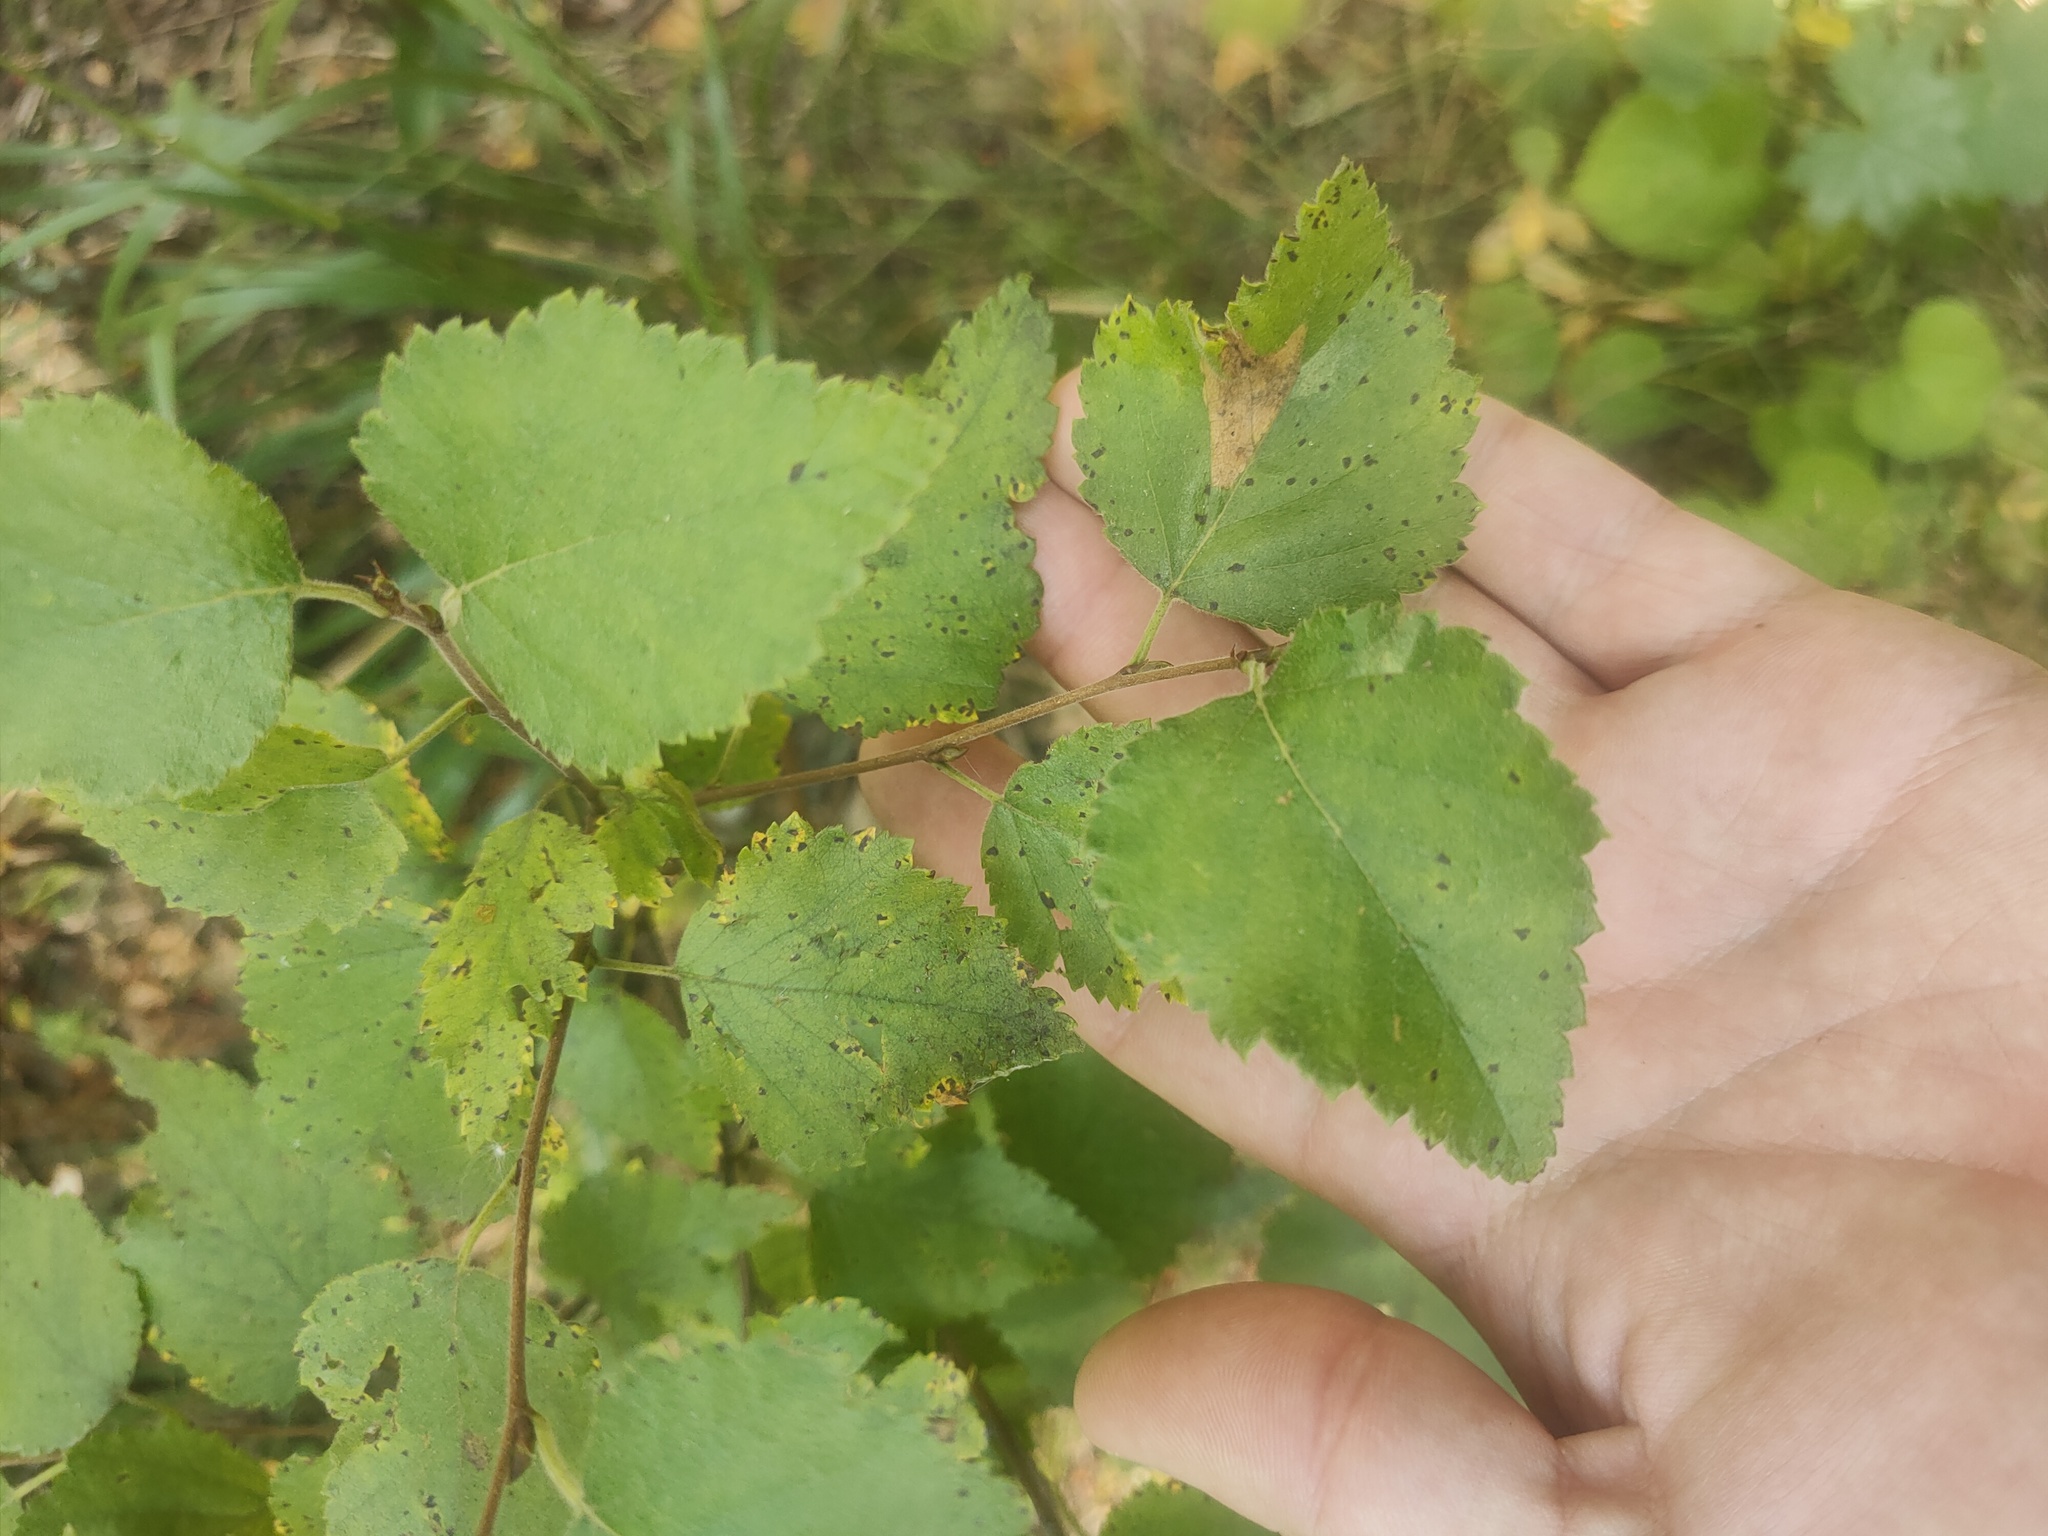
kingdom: Plantae
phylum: Tracheophyta
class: Magnoliopsida
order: Fagales
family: Betulaceae
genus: Betula
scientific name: Betula pubescens
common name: Downy birch
